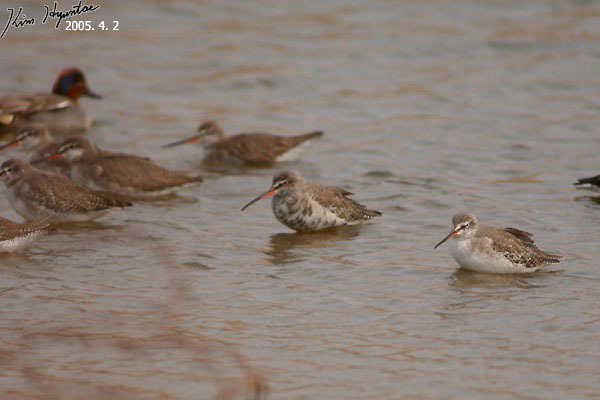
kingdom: Animalia
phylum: Chordata
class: Aves
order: Charadriiformes
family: Scolopacidae
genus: Tringa
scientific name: Tringa erythropus
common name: Spotted redshank
